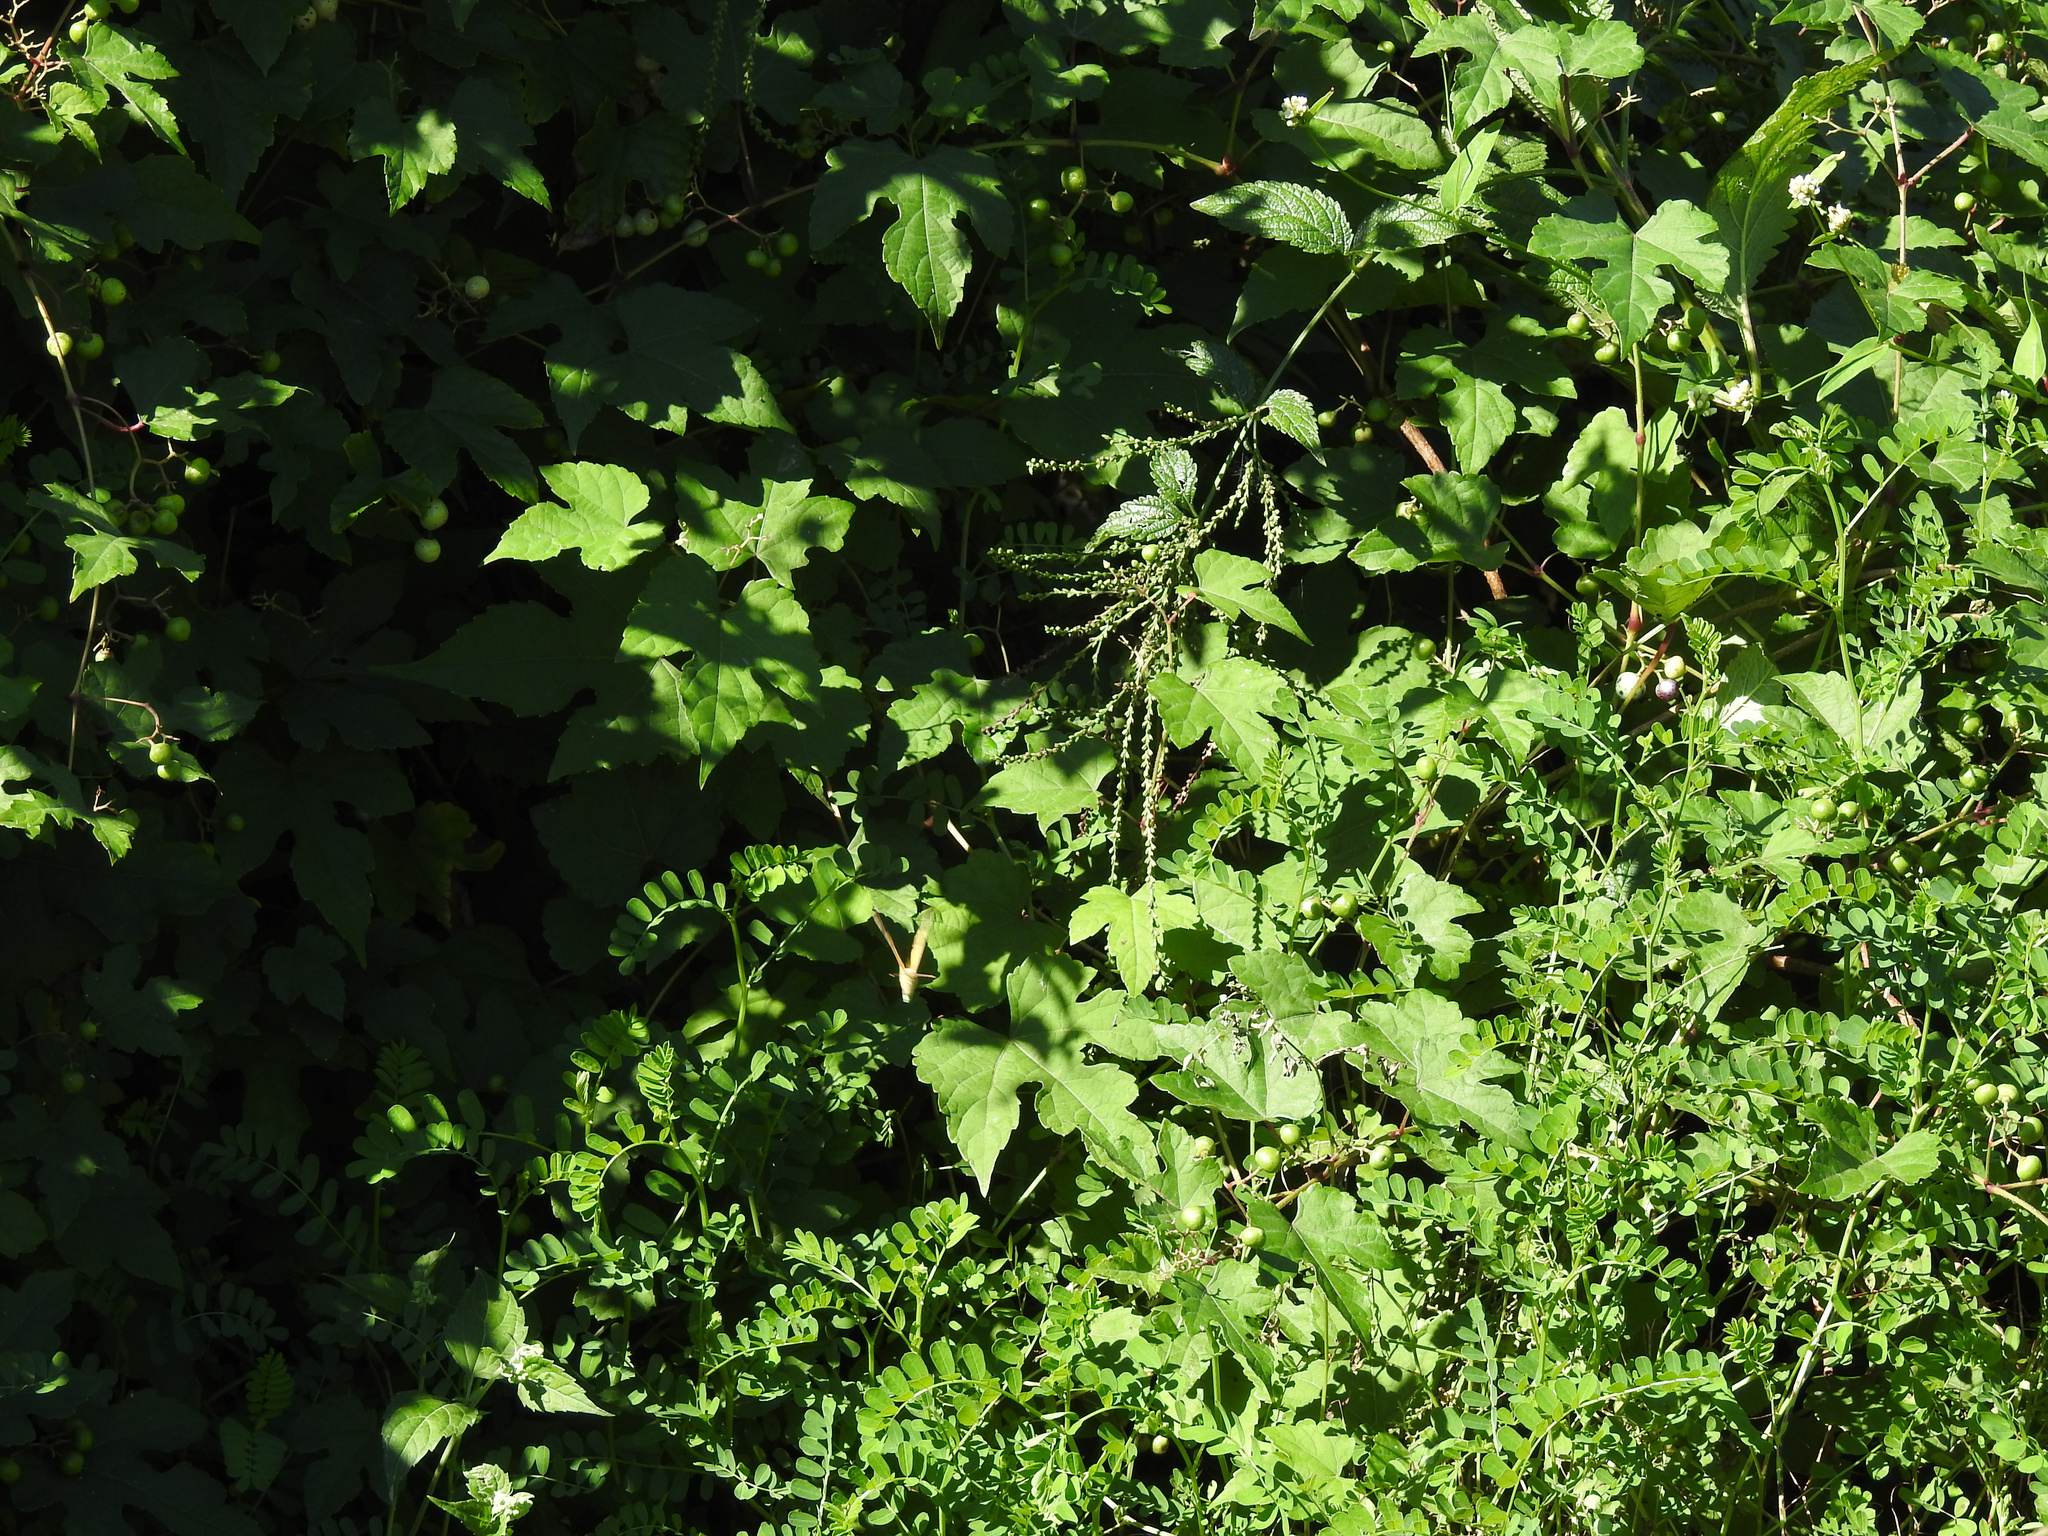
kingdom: Plantae
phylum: Tracheophyta
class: Magnoliopsida
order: Lamiales
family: Verbenaceae
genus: Verbena
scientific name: Verbena urticifolia
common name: Nettle-leaved vervain
